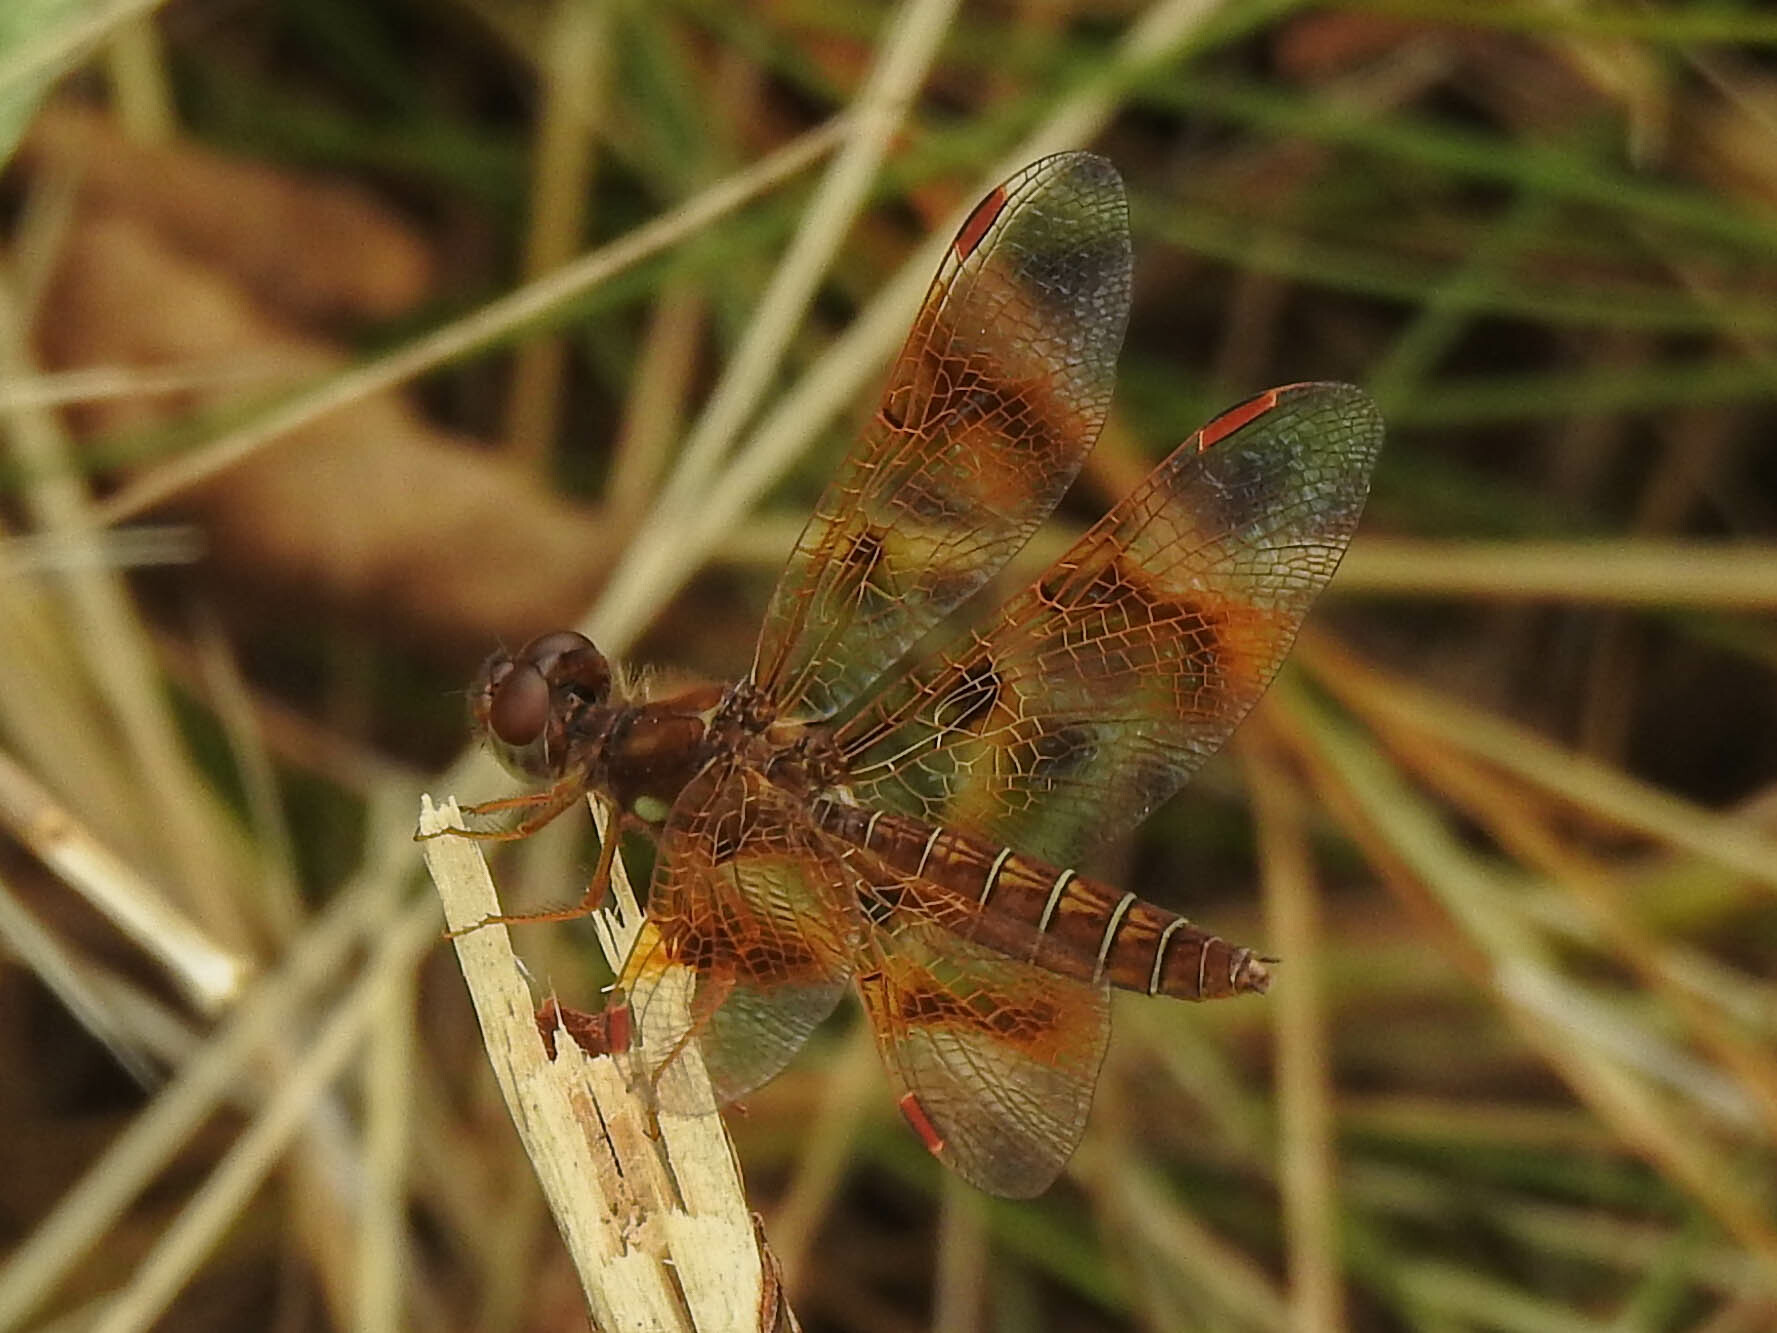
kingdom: Animalia
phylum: Arthropoda
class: Insecta
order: Odonata
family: Libellulidae
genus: Perithemis
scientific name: Perithemis tenera
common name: Eastern amberwing
